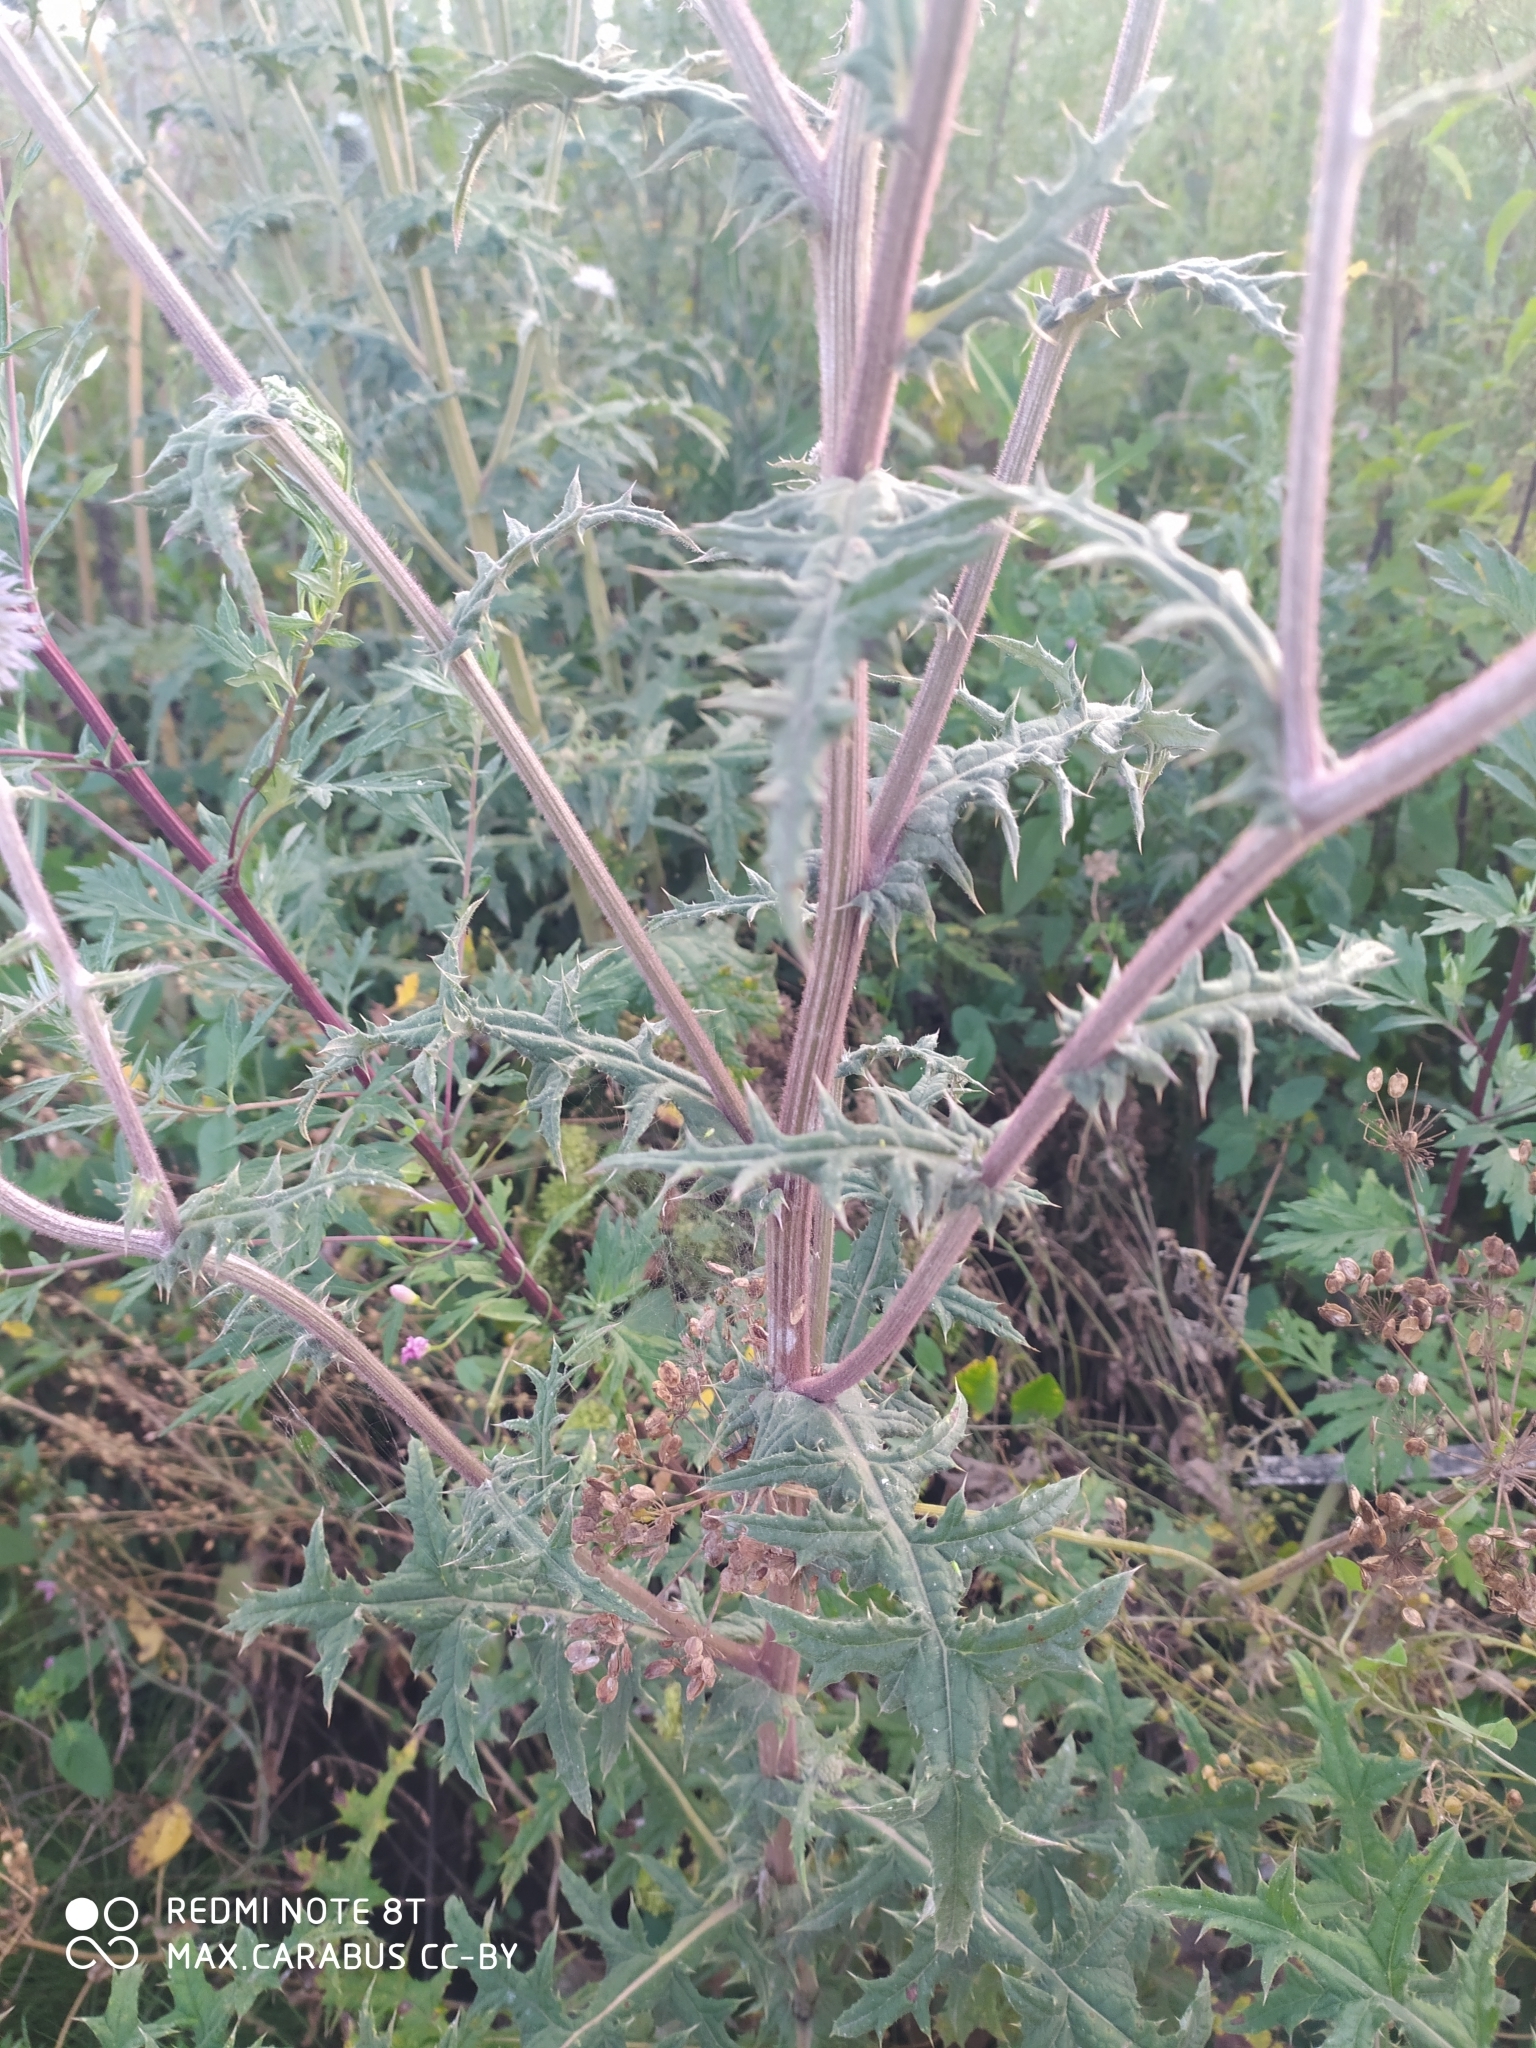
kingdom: Plantae
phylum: Tracheophyta
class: Magnoliopsida
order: Asterales
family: Asteraceae
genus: Echinops
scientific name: Echinops sphaerocephalus
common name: Glandular globe-thistle
